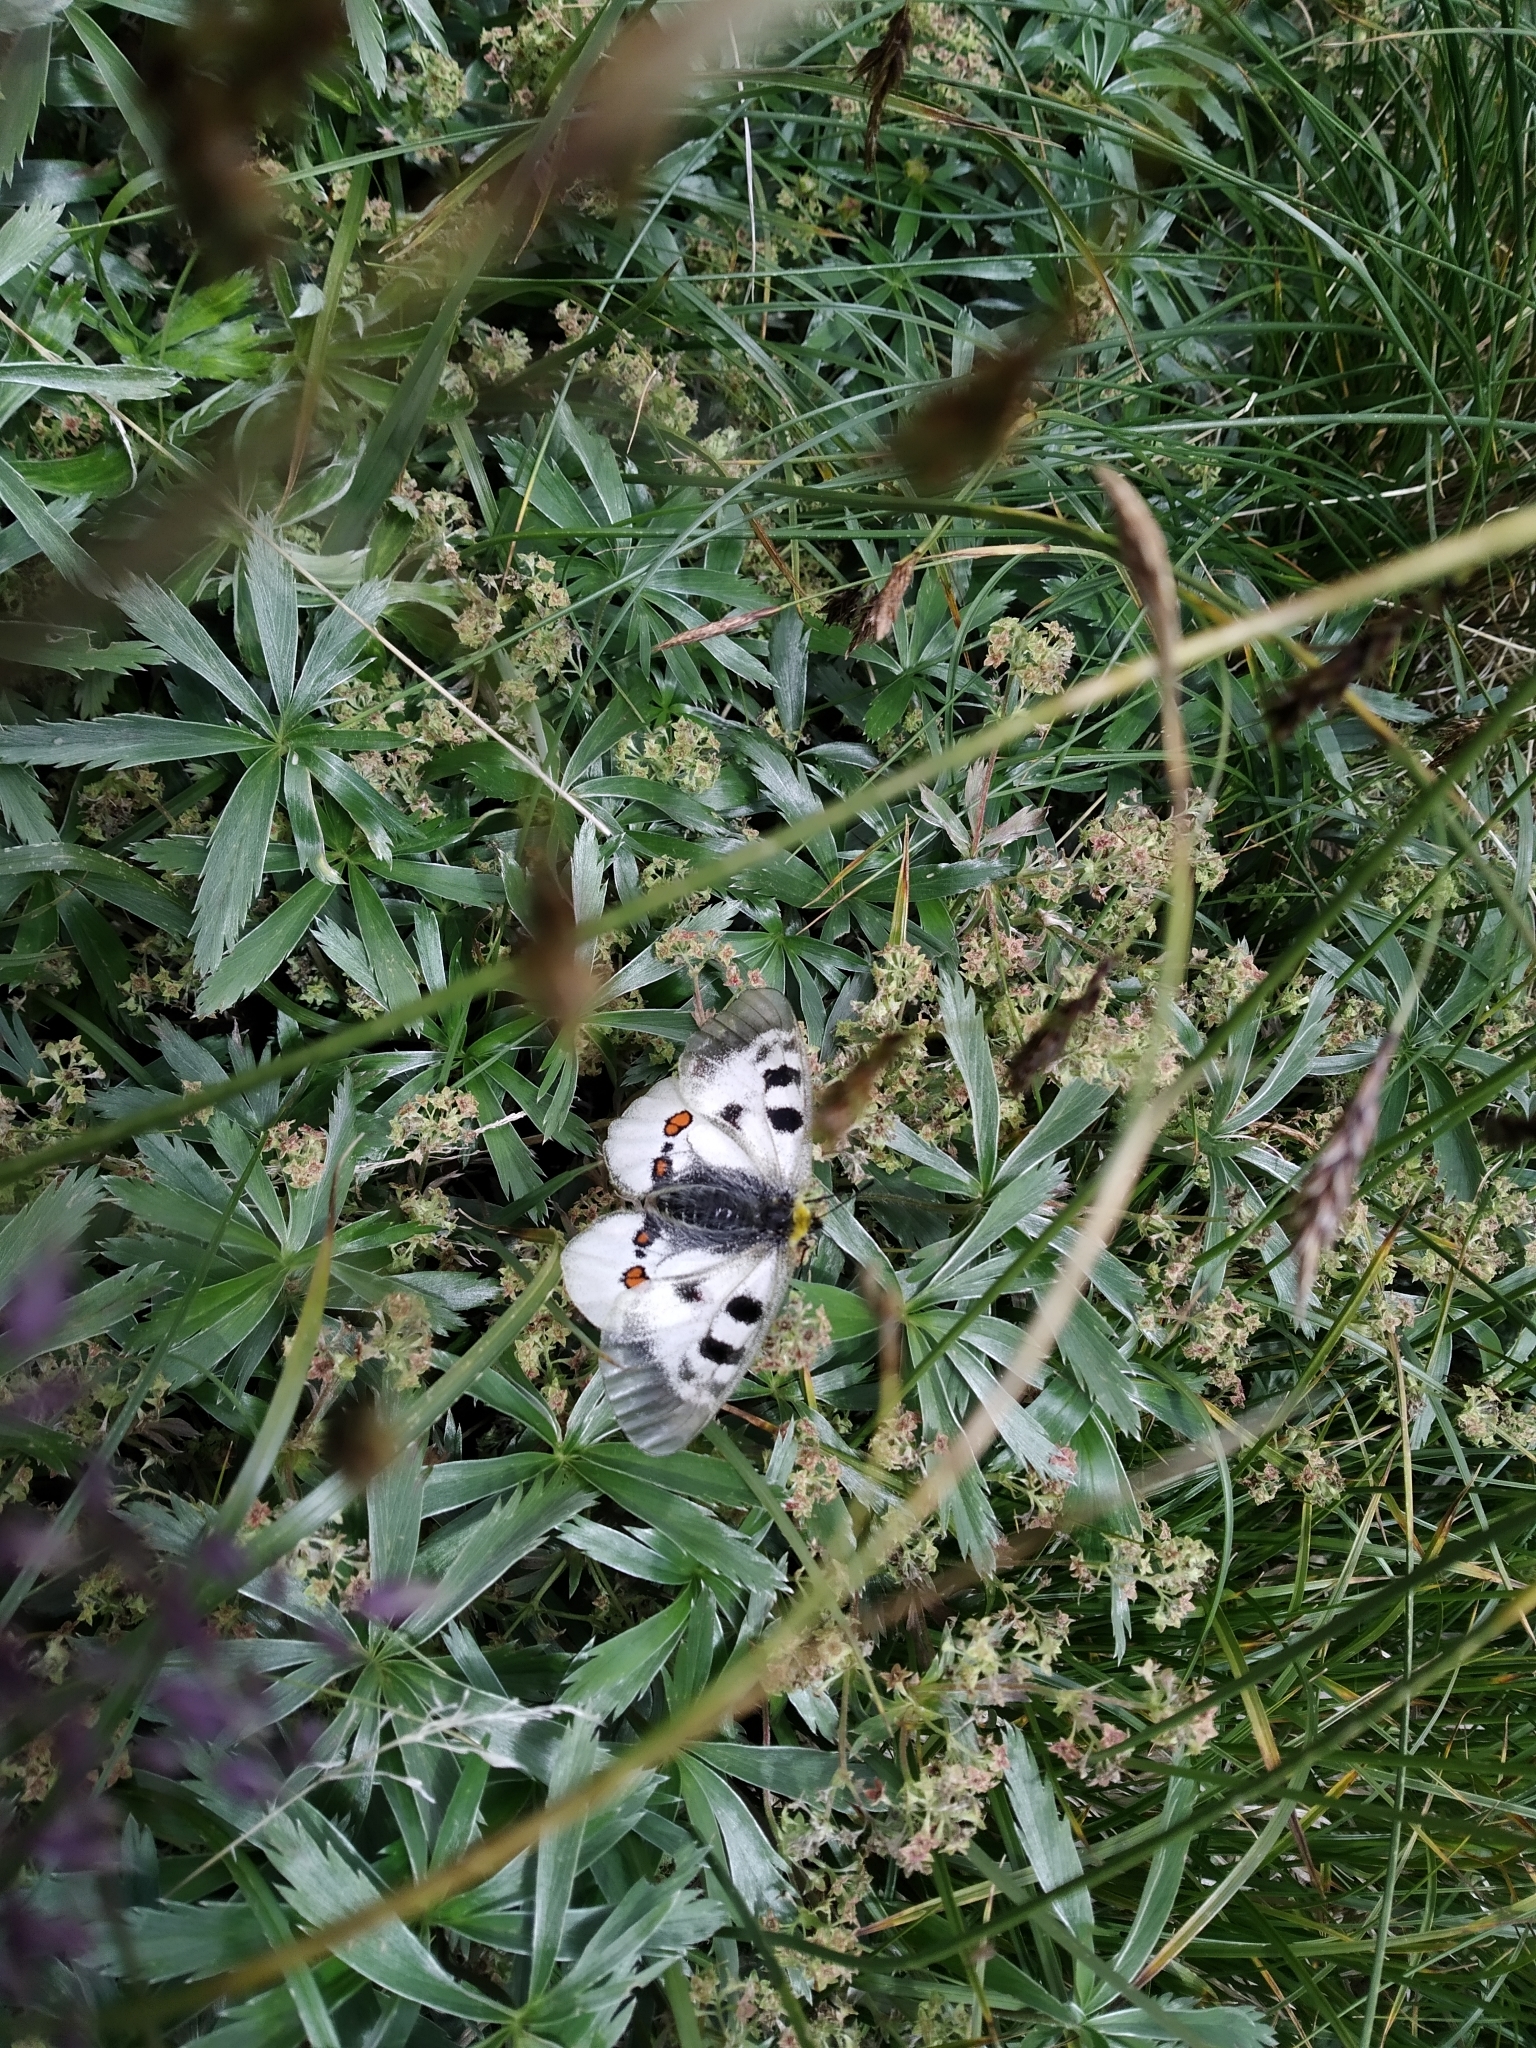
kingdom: Animalia
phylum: Arthropoda
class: Insecta
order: Lepidoptera
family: Papilionidae
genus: Parnassius
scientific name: Parnassius nordmanni
